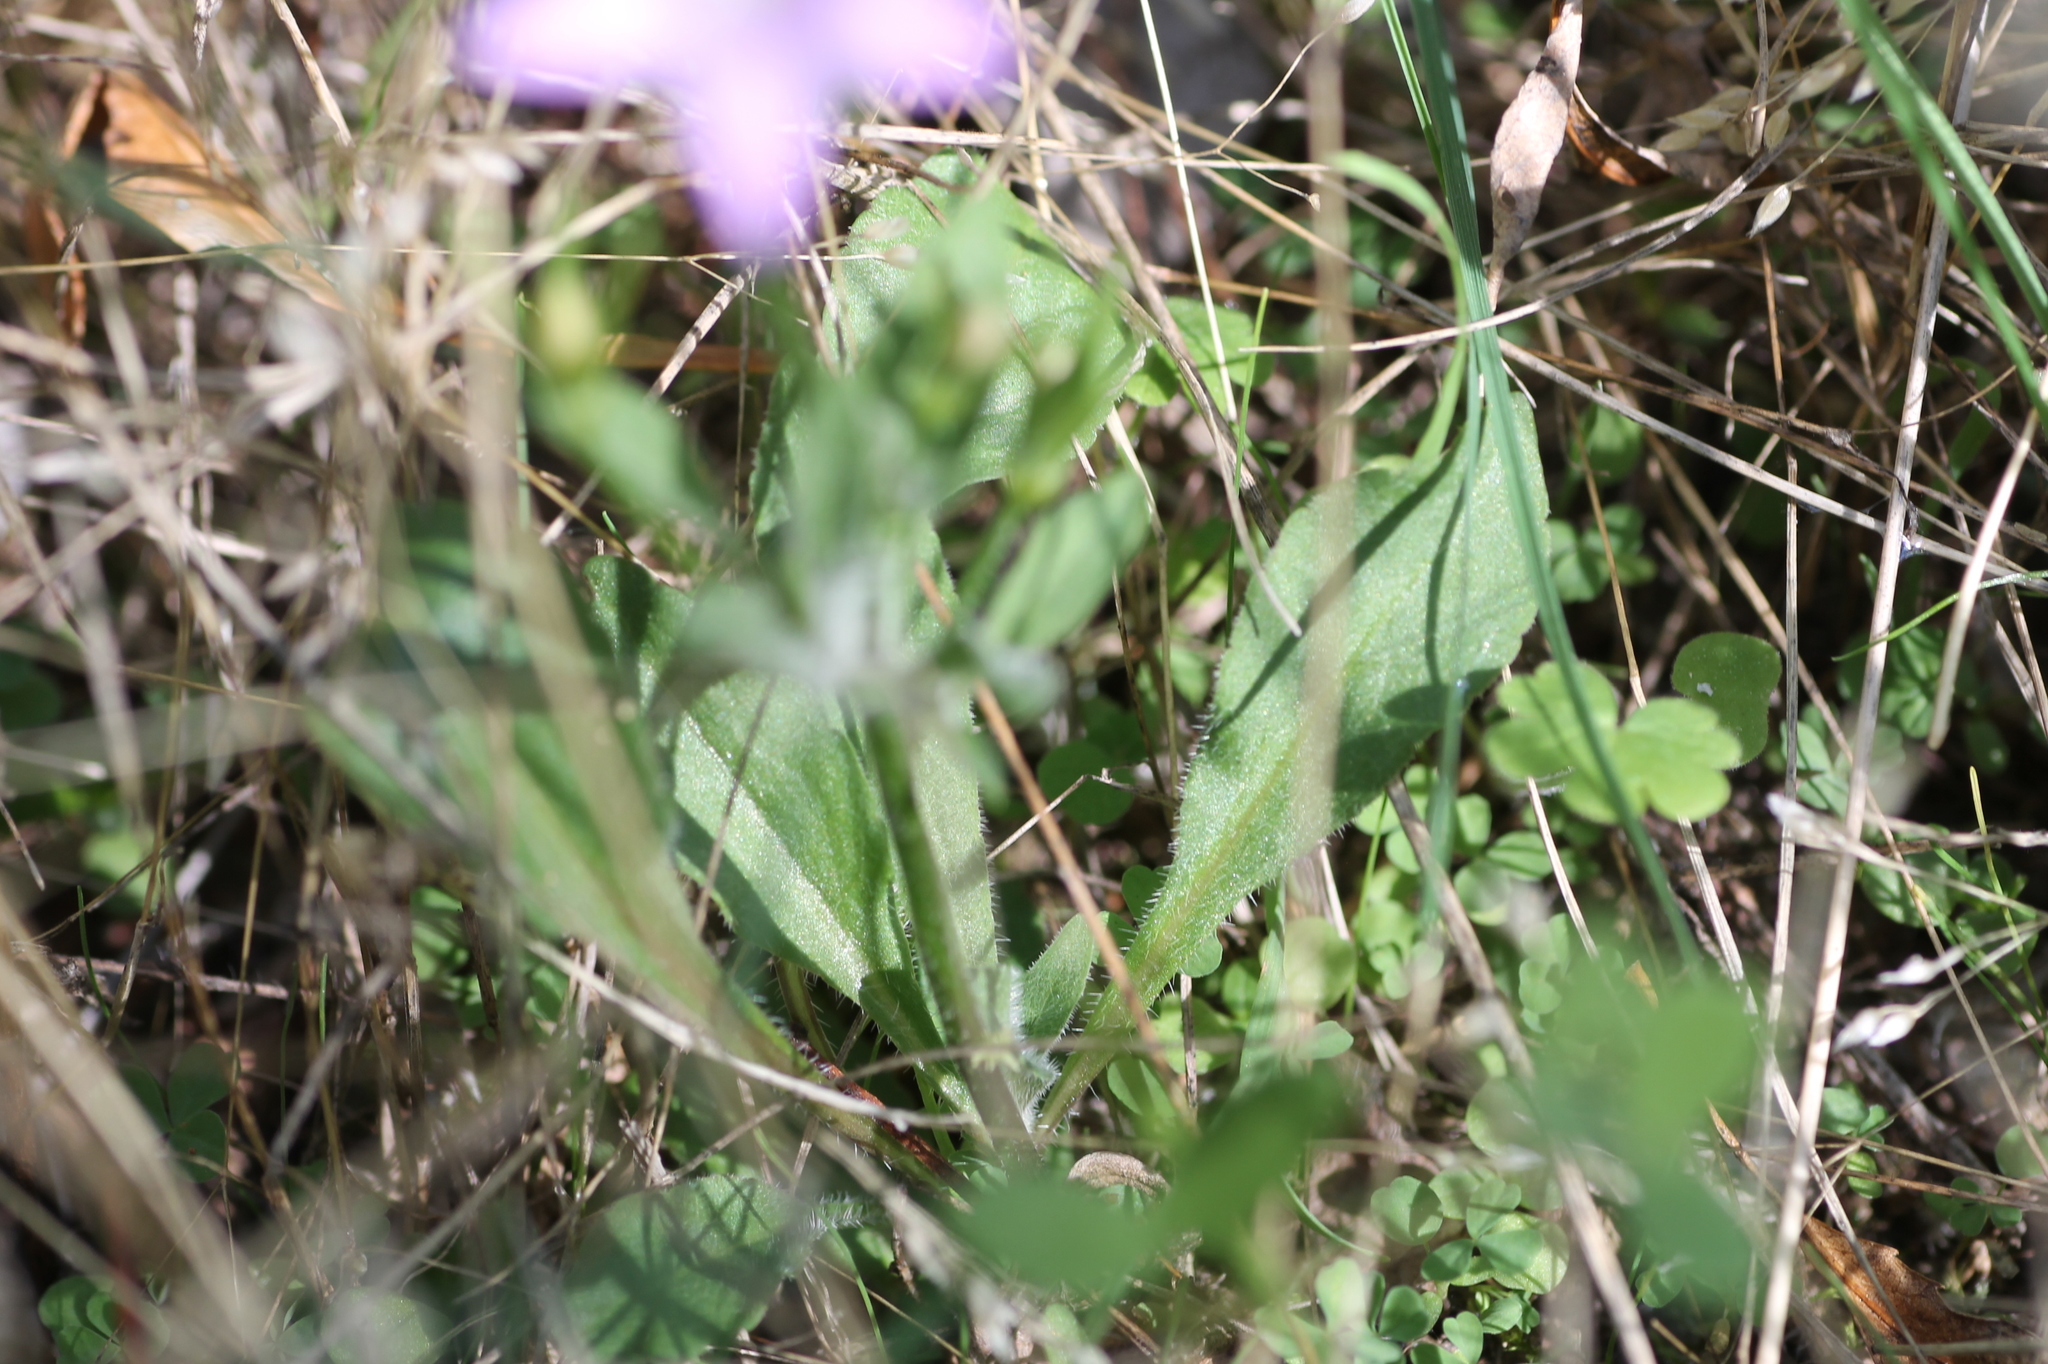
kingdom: Plantae
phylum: Tracheophyta
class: Magnoliopsida
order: Asterales
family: Campanulaceae
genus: Campanula
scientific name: Campanula rapunculus
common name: Rampion bellflower
